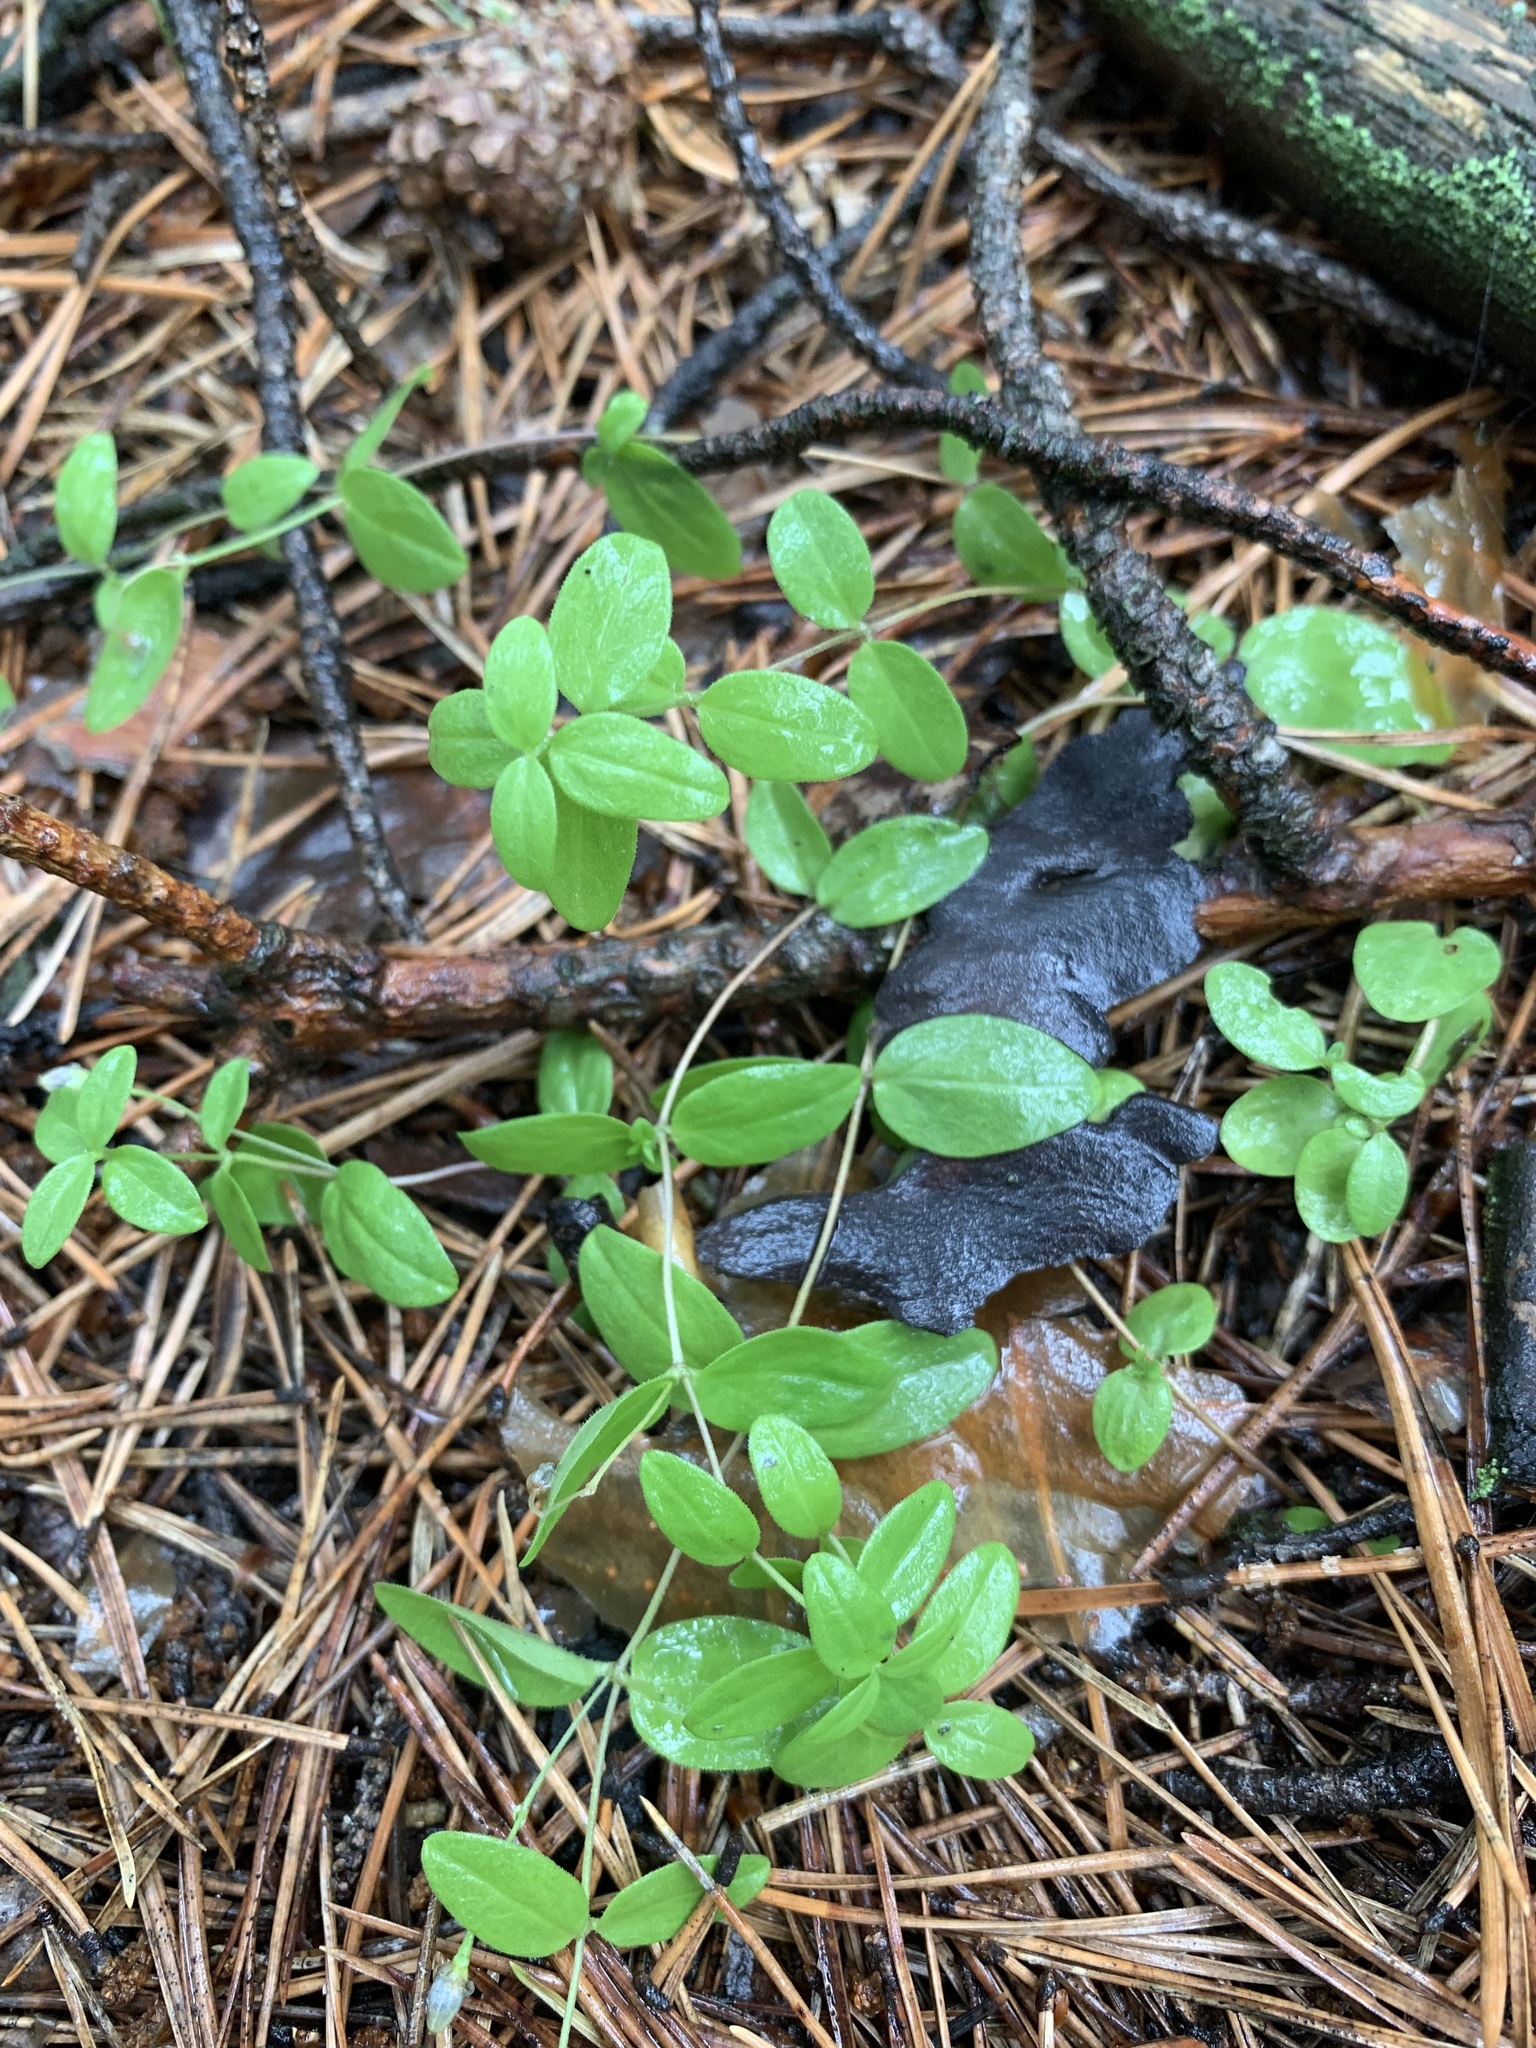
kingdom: Plantae
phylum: Tracheophyta
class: Magnoliopsida
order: Caryophyllales
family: Caryophyllaceae
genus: Moehringia
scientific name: Moehringia lateriflora
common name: Blunt-leaved sandwort
